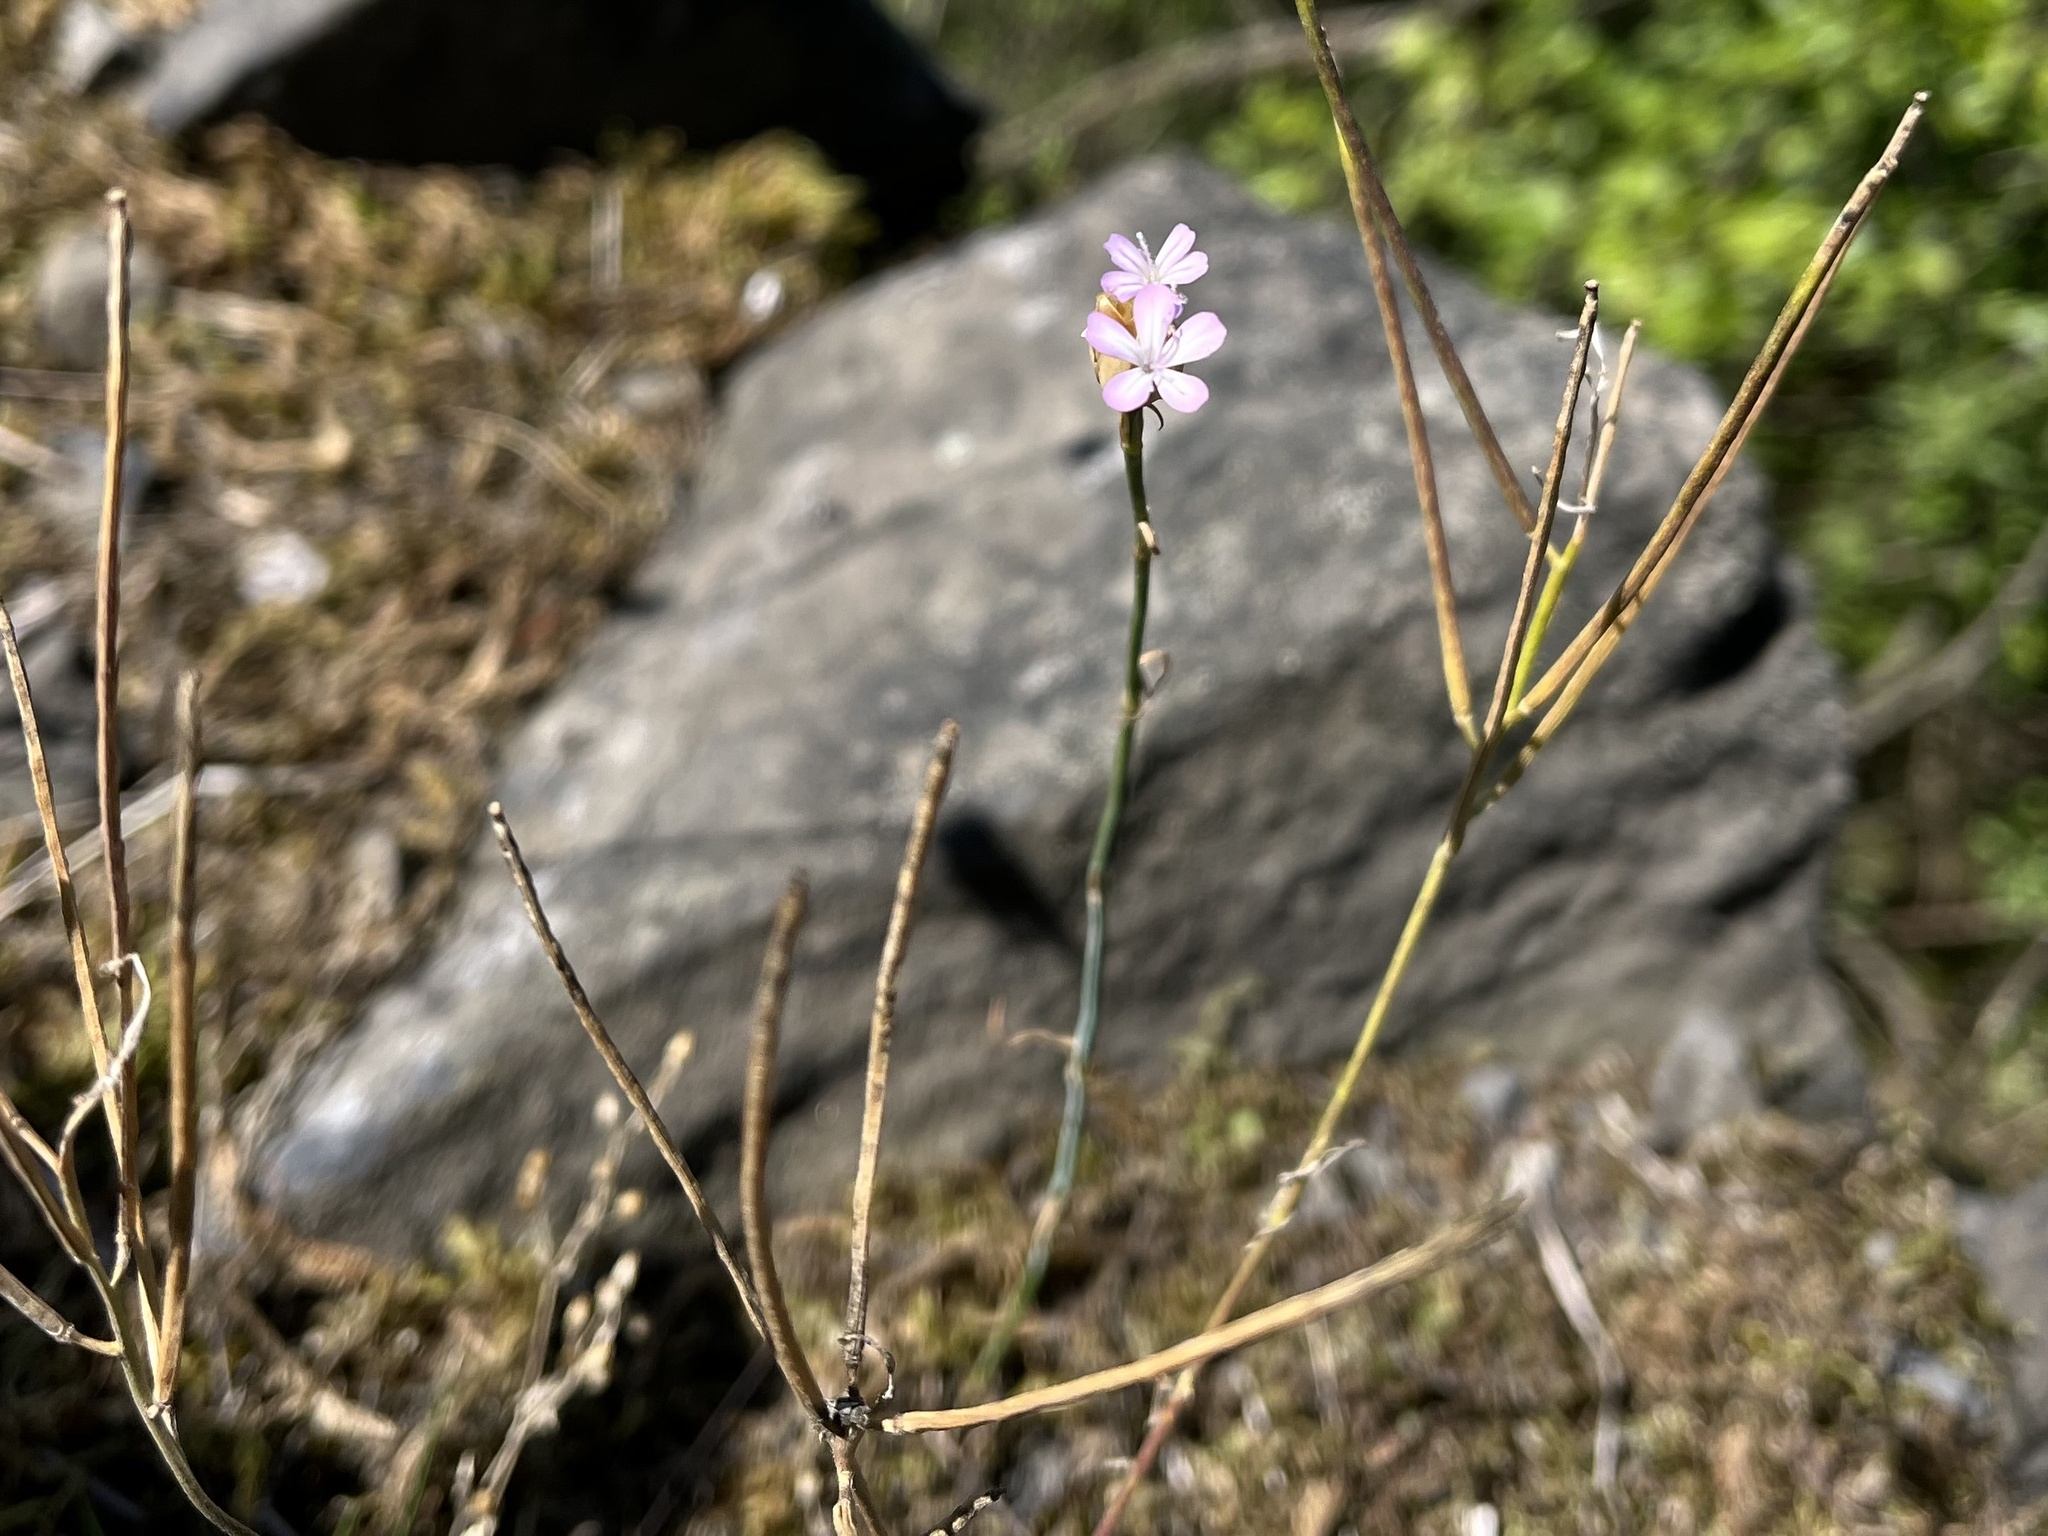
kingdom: Plantae
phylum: Tracheophyta
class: Magnoliopsida
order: Caryophyllales
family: Caryophyllaceae
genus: Petrorhagia
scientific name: Petrorhagia prolifera
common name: Proliferous pink
